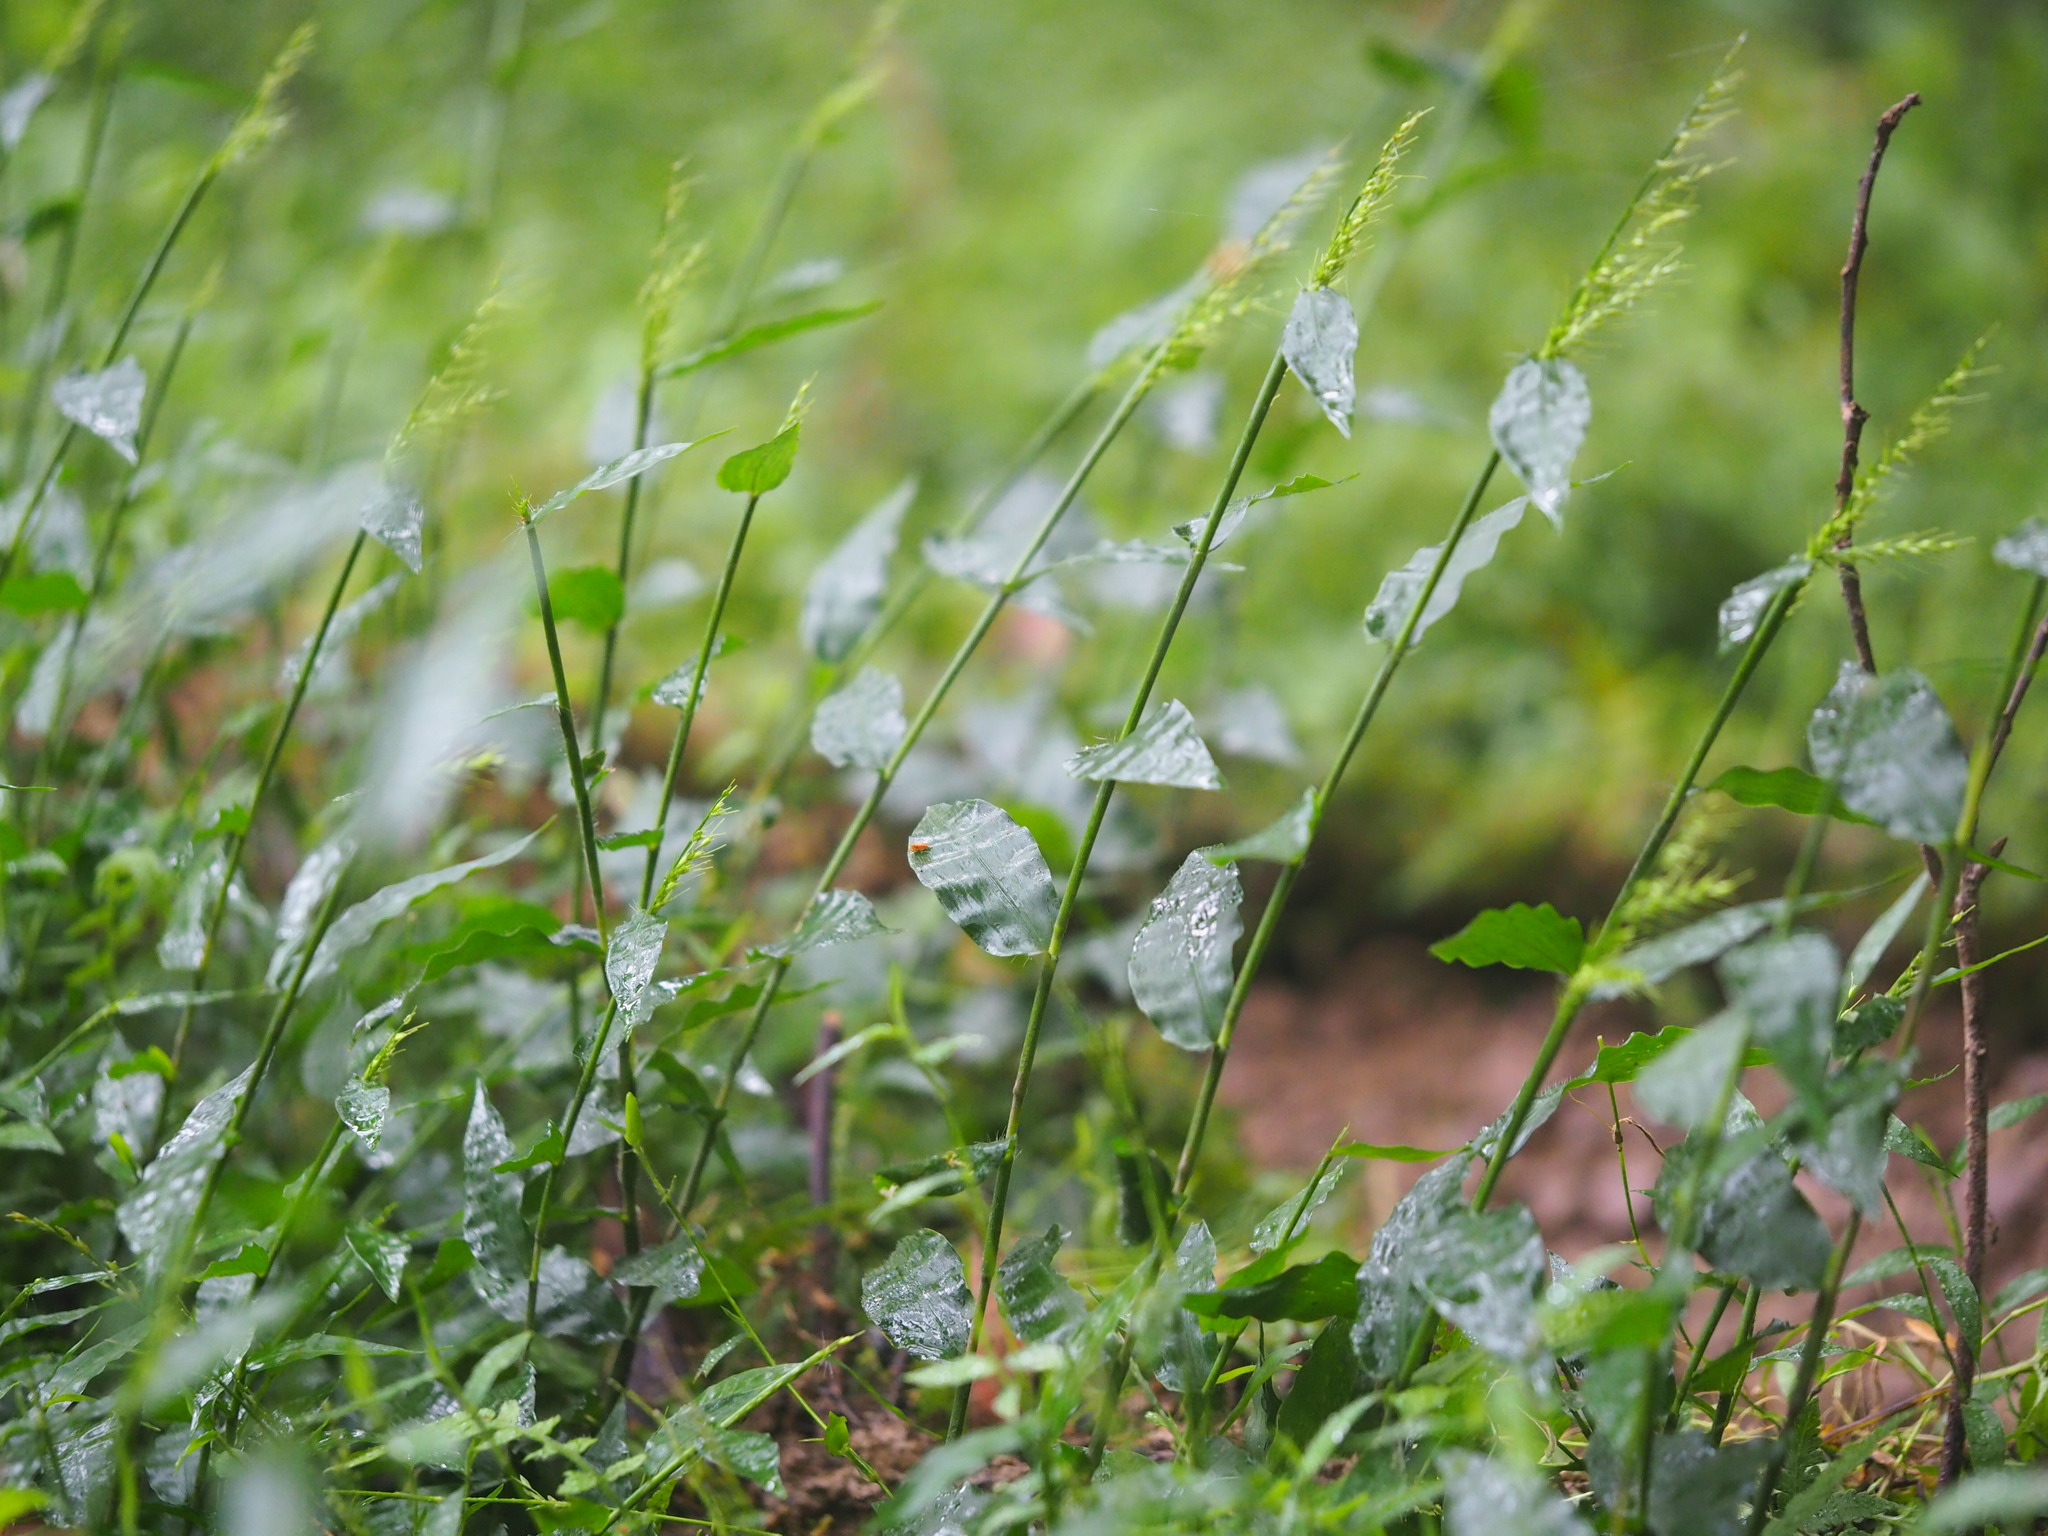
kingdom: Plantae
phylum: Tracheophyta
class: Liliopsida
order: Poales
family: Poaceae
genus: Oplismenus
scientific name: Oplismenus compositus
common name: Running mountain grass
